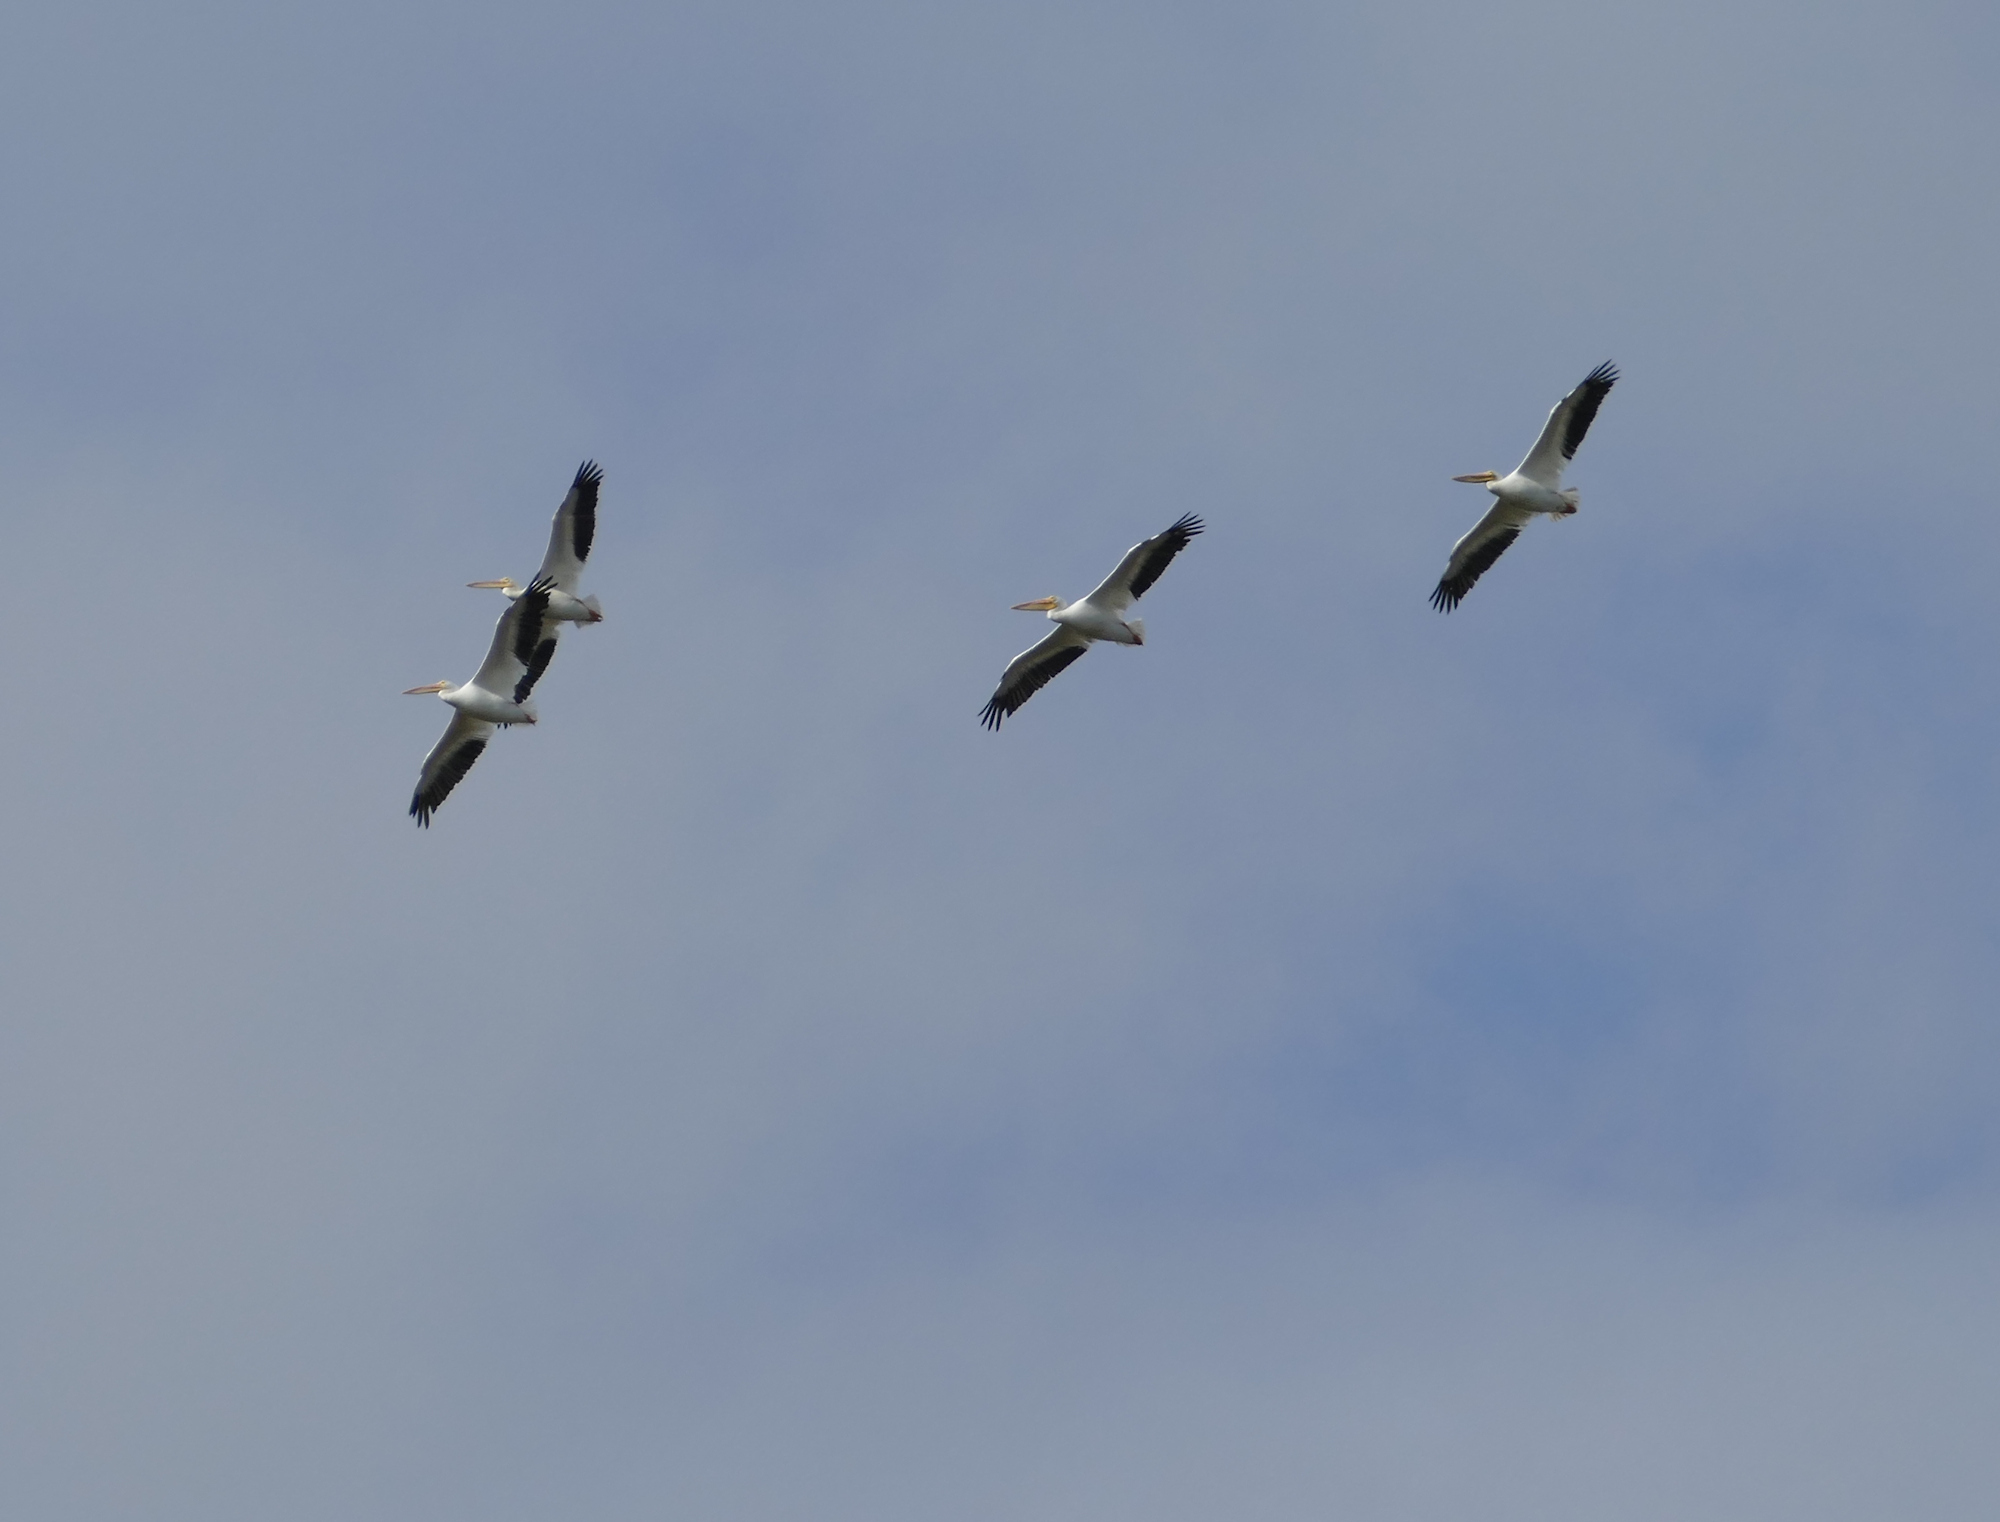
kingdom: Animalia
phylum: Chordata
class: Aves
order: Pelecaniformes
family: Pelecanidae
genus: Pelecanus
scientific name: Pelecanus erythrorhynchos
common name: American white pelican
